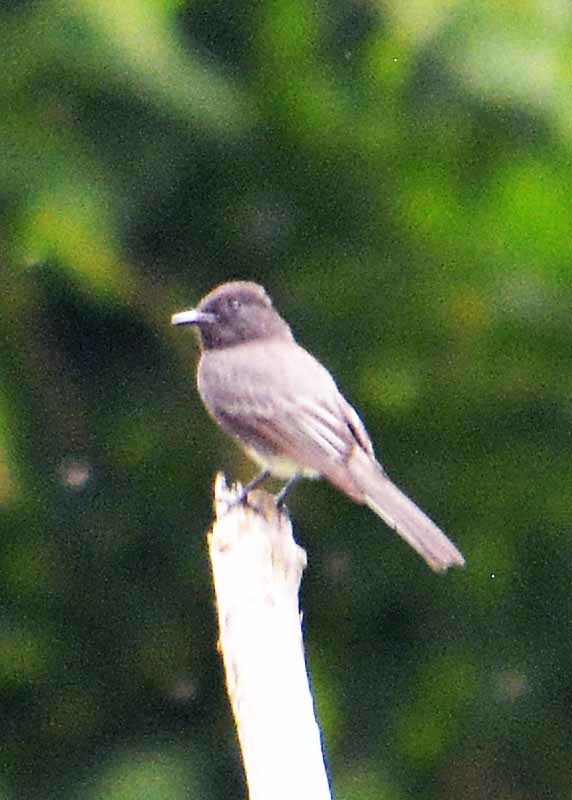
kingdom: Animalia
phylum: Chordata
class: Aves
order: Passeriformes
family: Tyrannidae
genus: Sayornis
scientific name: Sayornis nigricans
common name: Black phoebe
